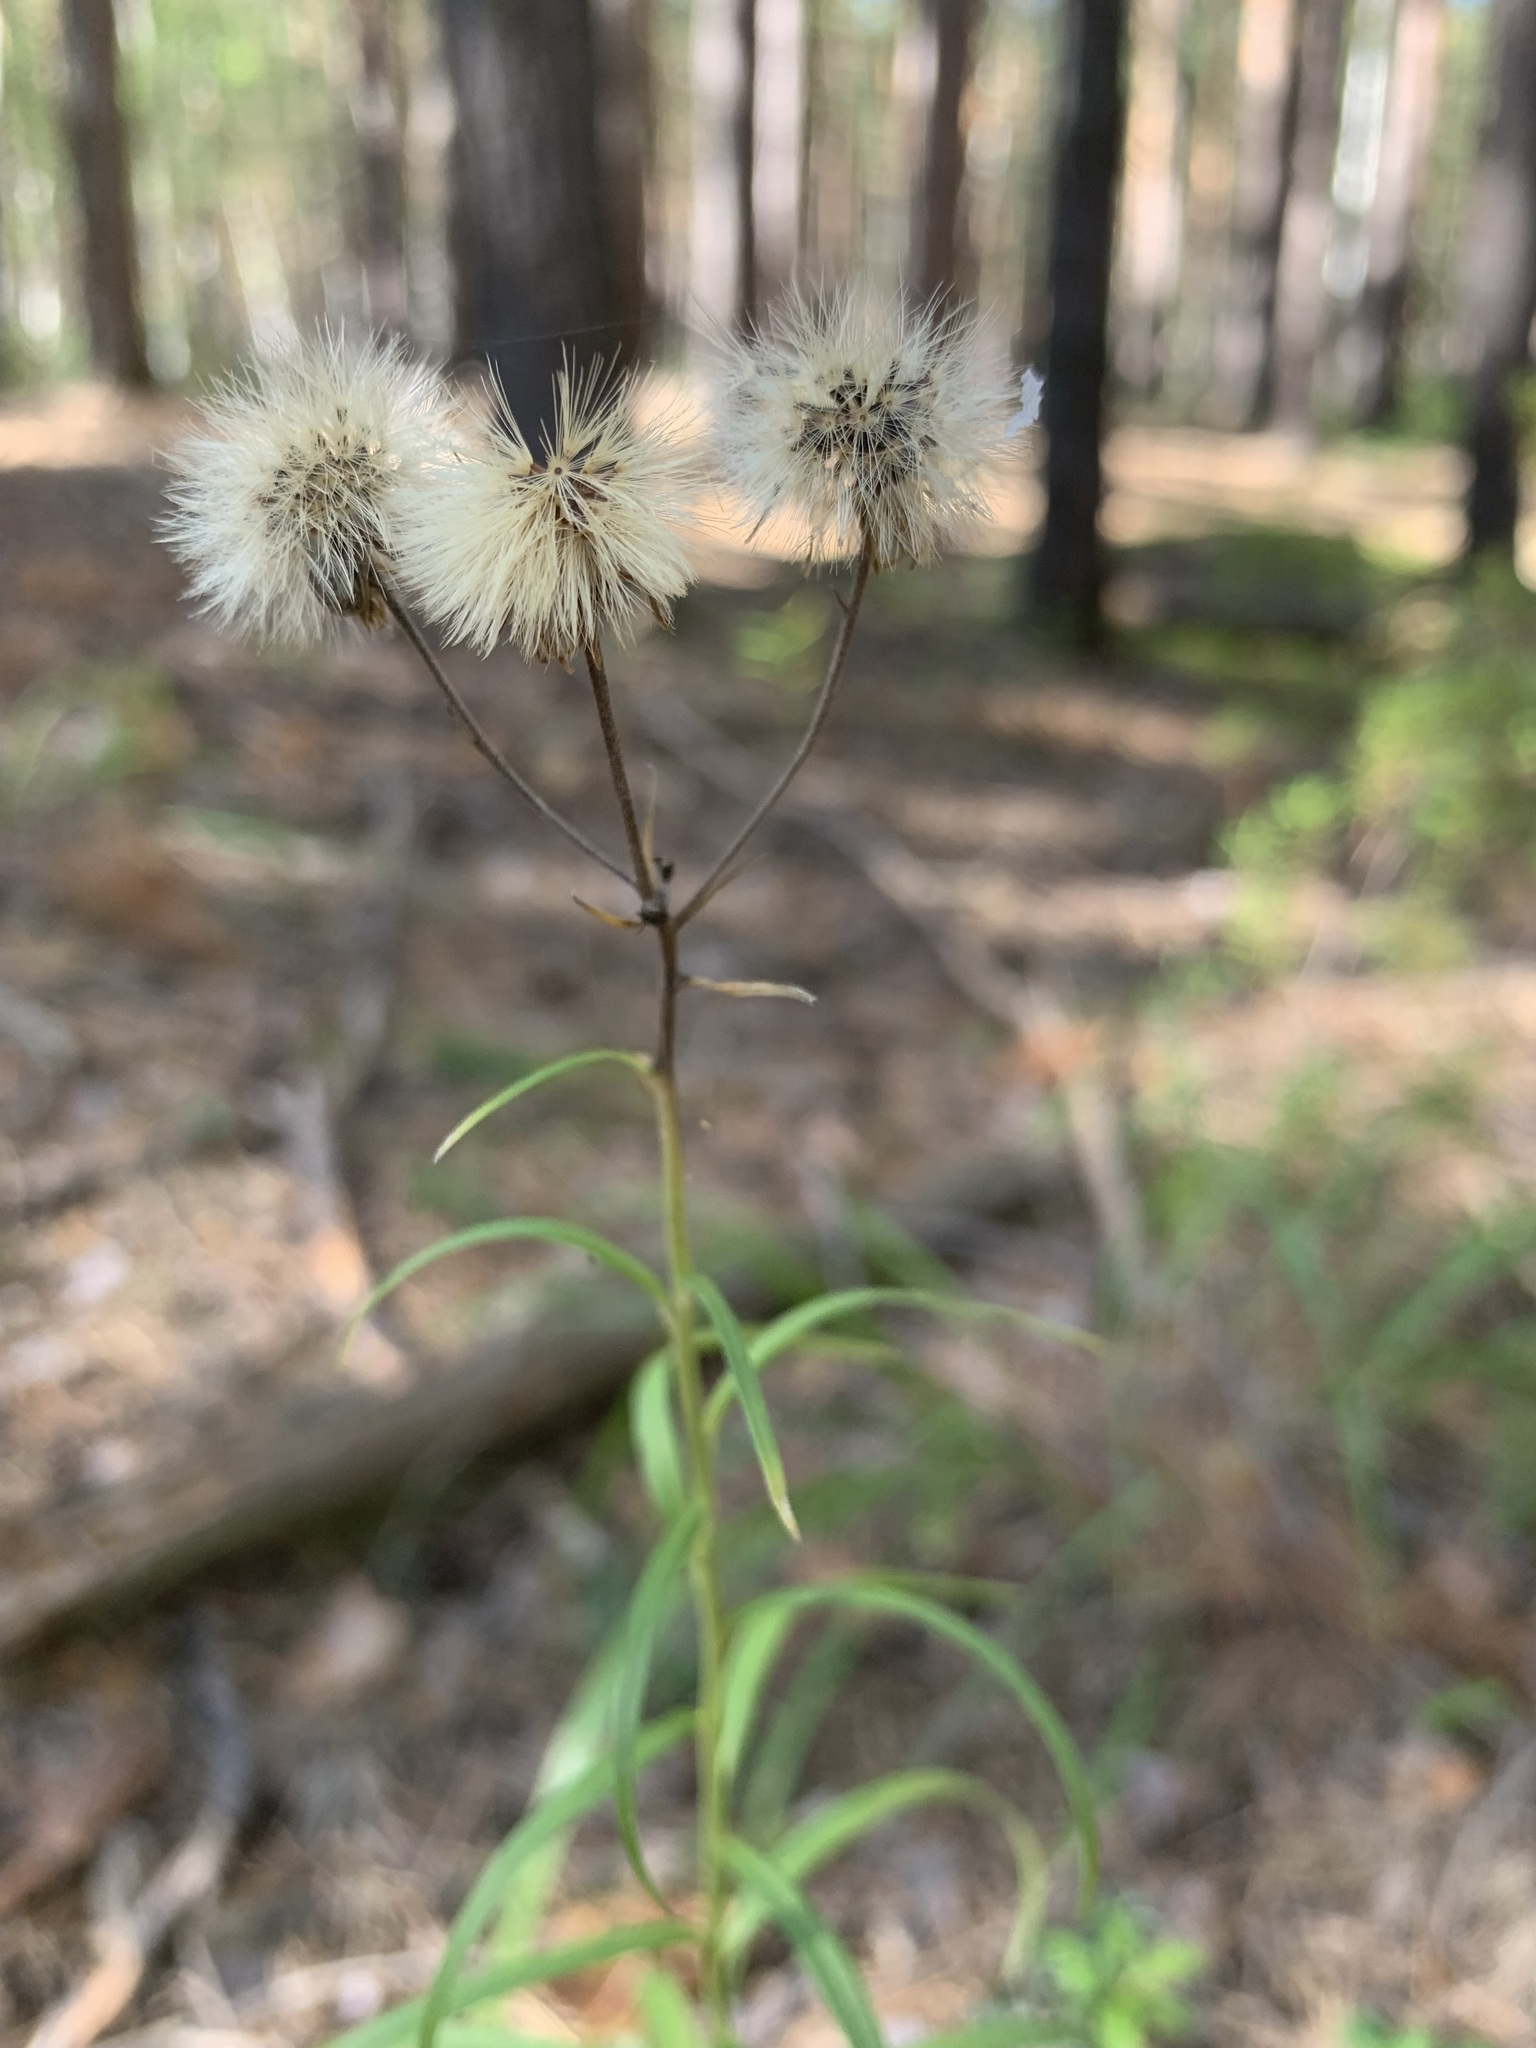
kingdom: Plantae
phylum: Tracheophyta
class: Magnoliopsida
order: Asterales
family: Asteraceae
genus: Hieracium
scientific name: Hieracium umbellatum
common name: Northern hawkweed
